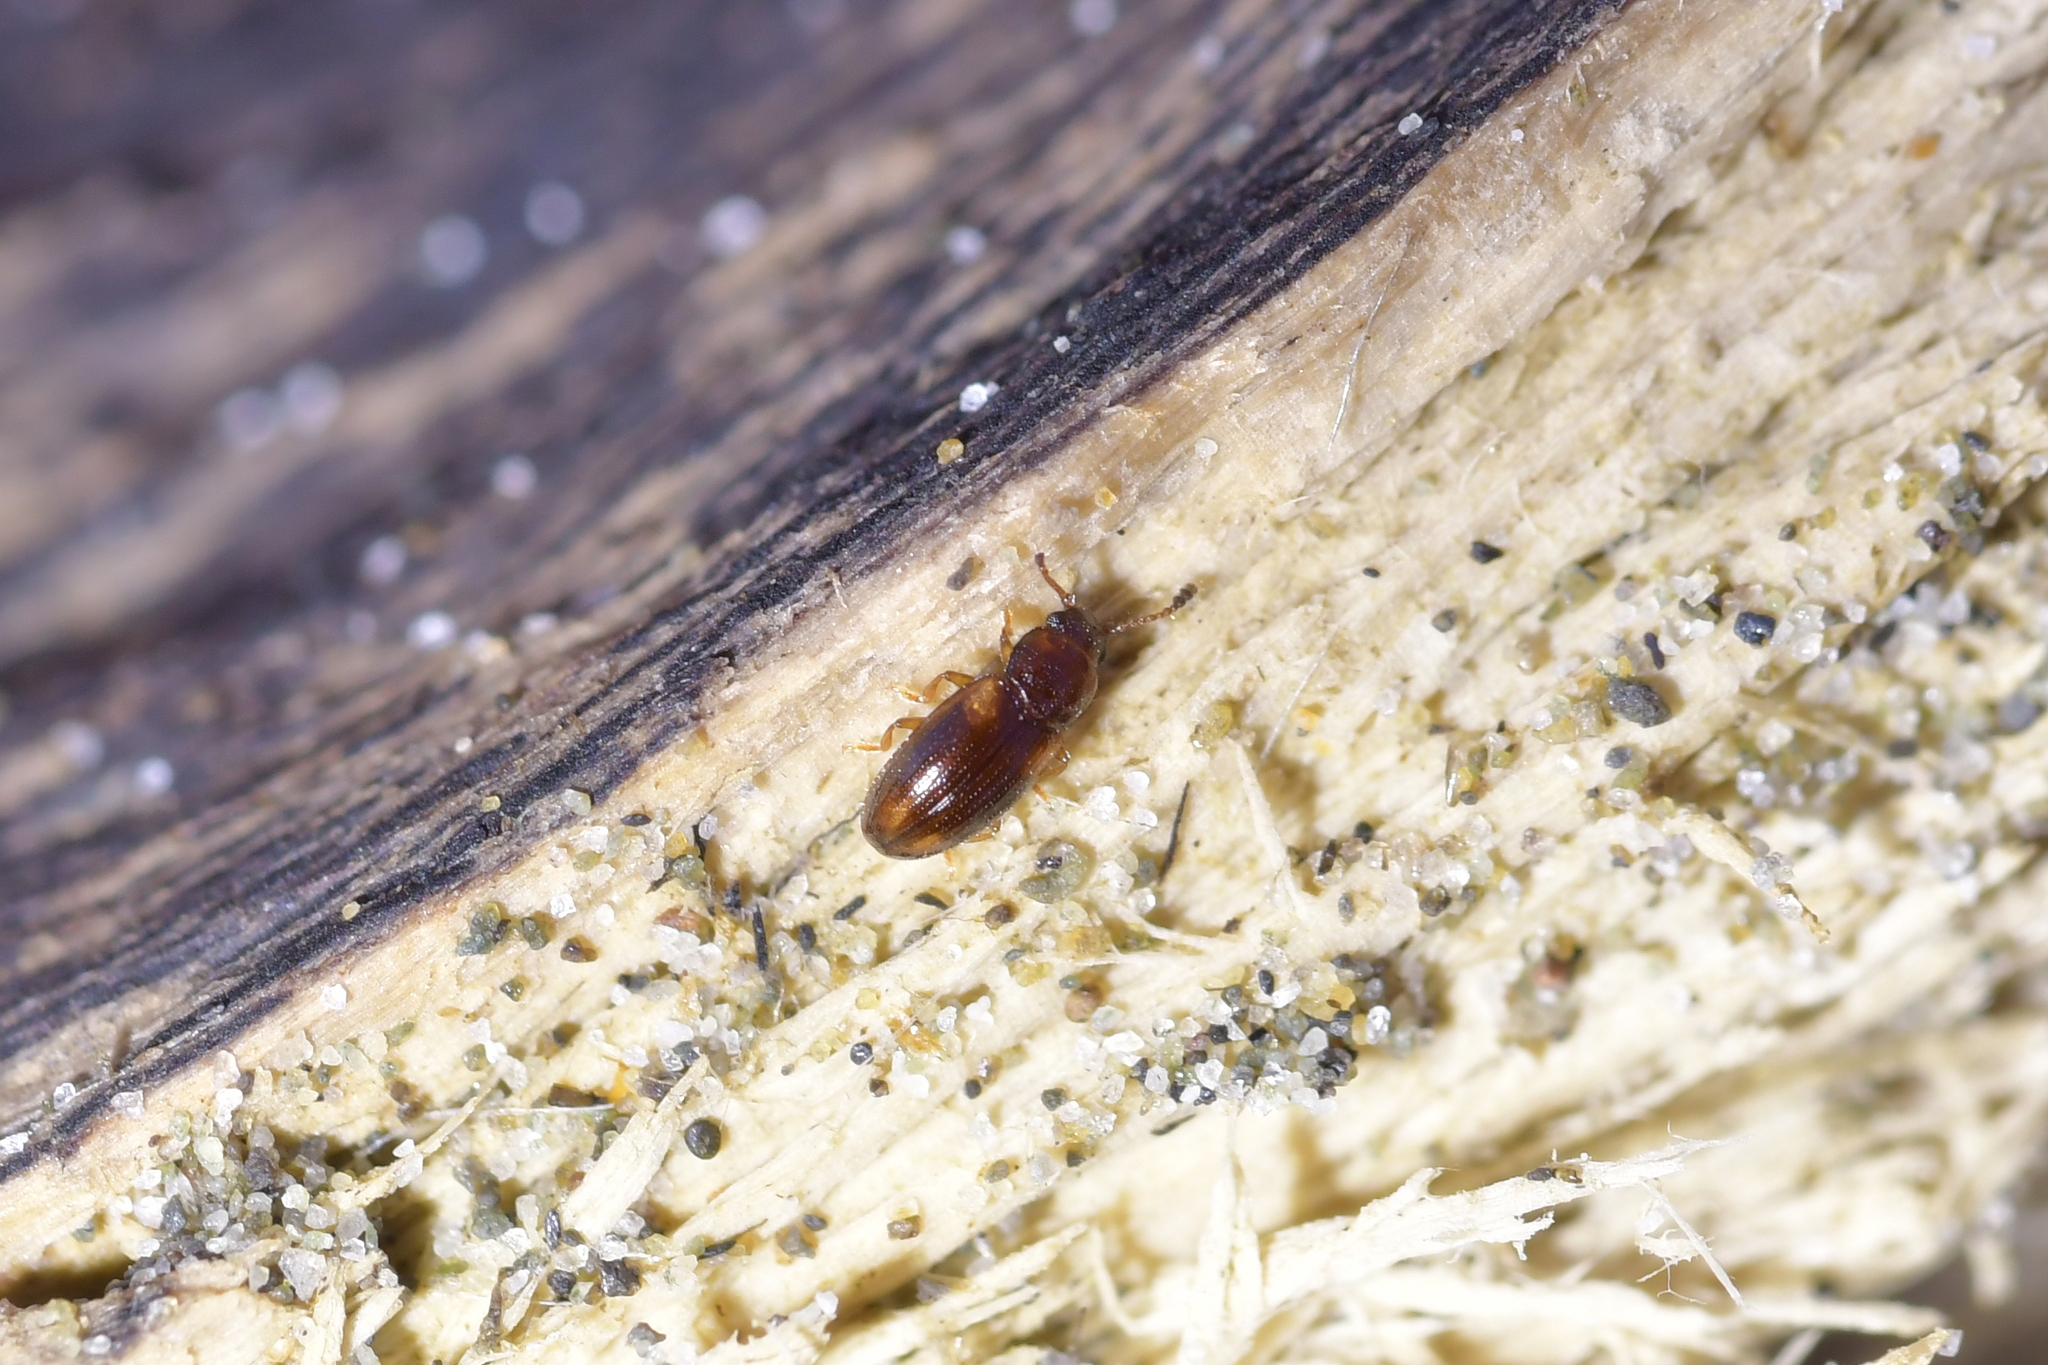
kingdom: Animalia
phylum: Arthropoda
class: Insecta
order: Coleoptera
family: Erotylidae
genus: Loberus
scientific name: Loberus nitens
